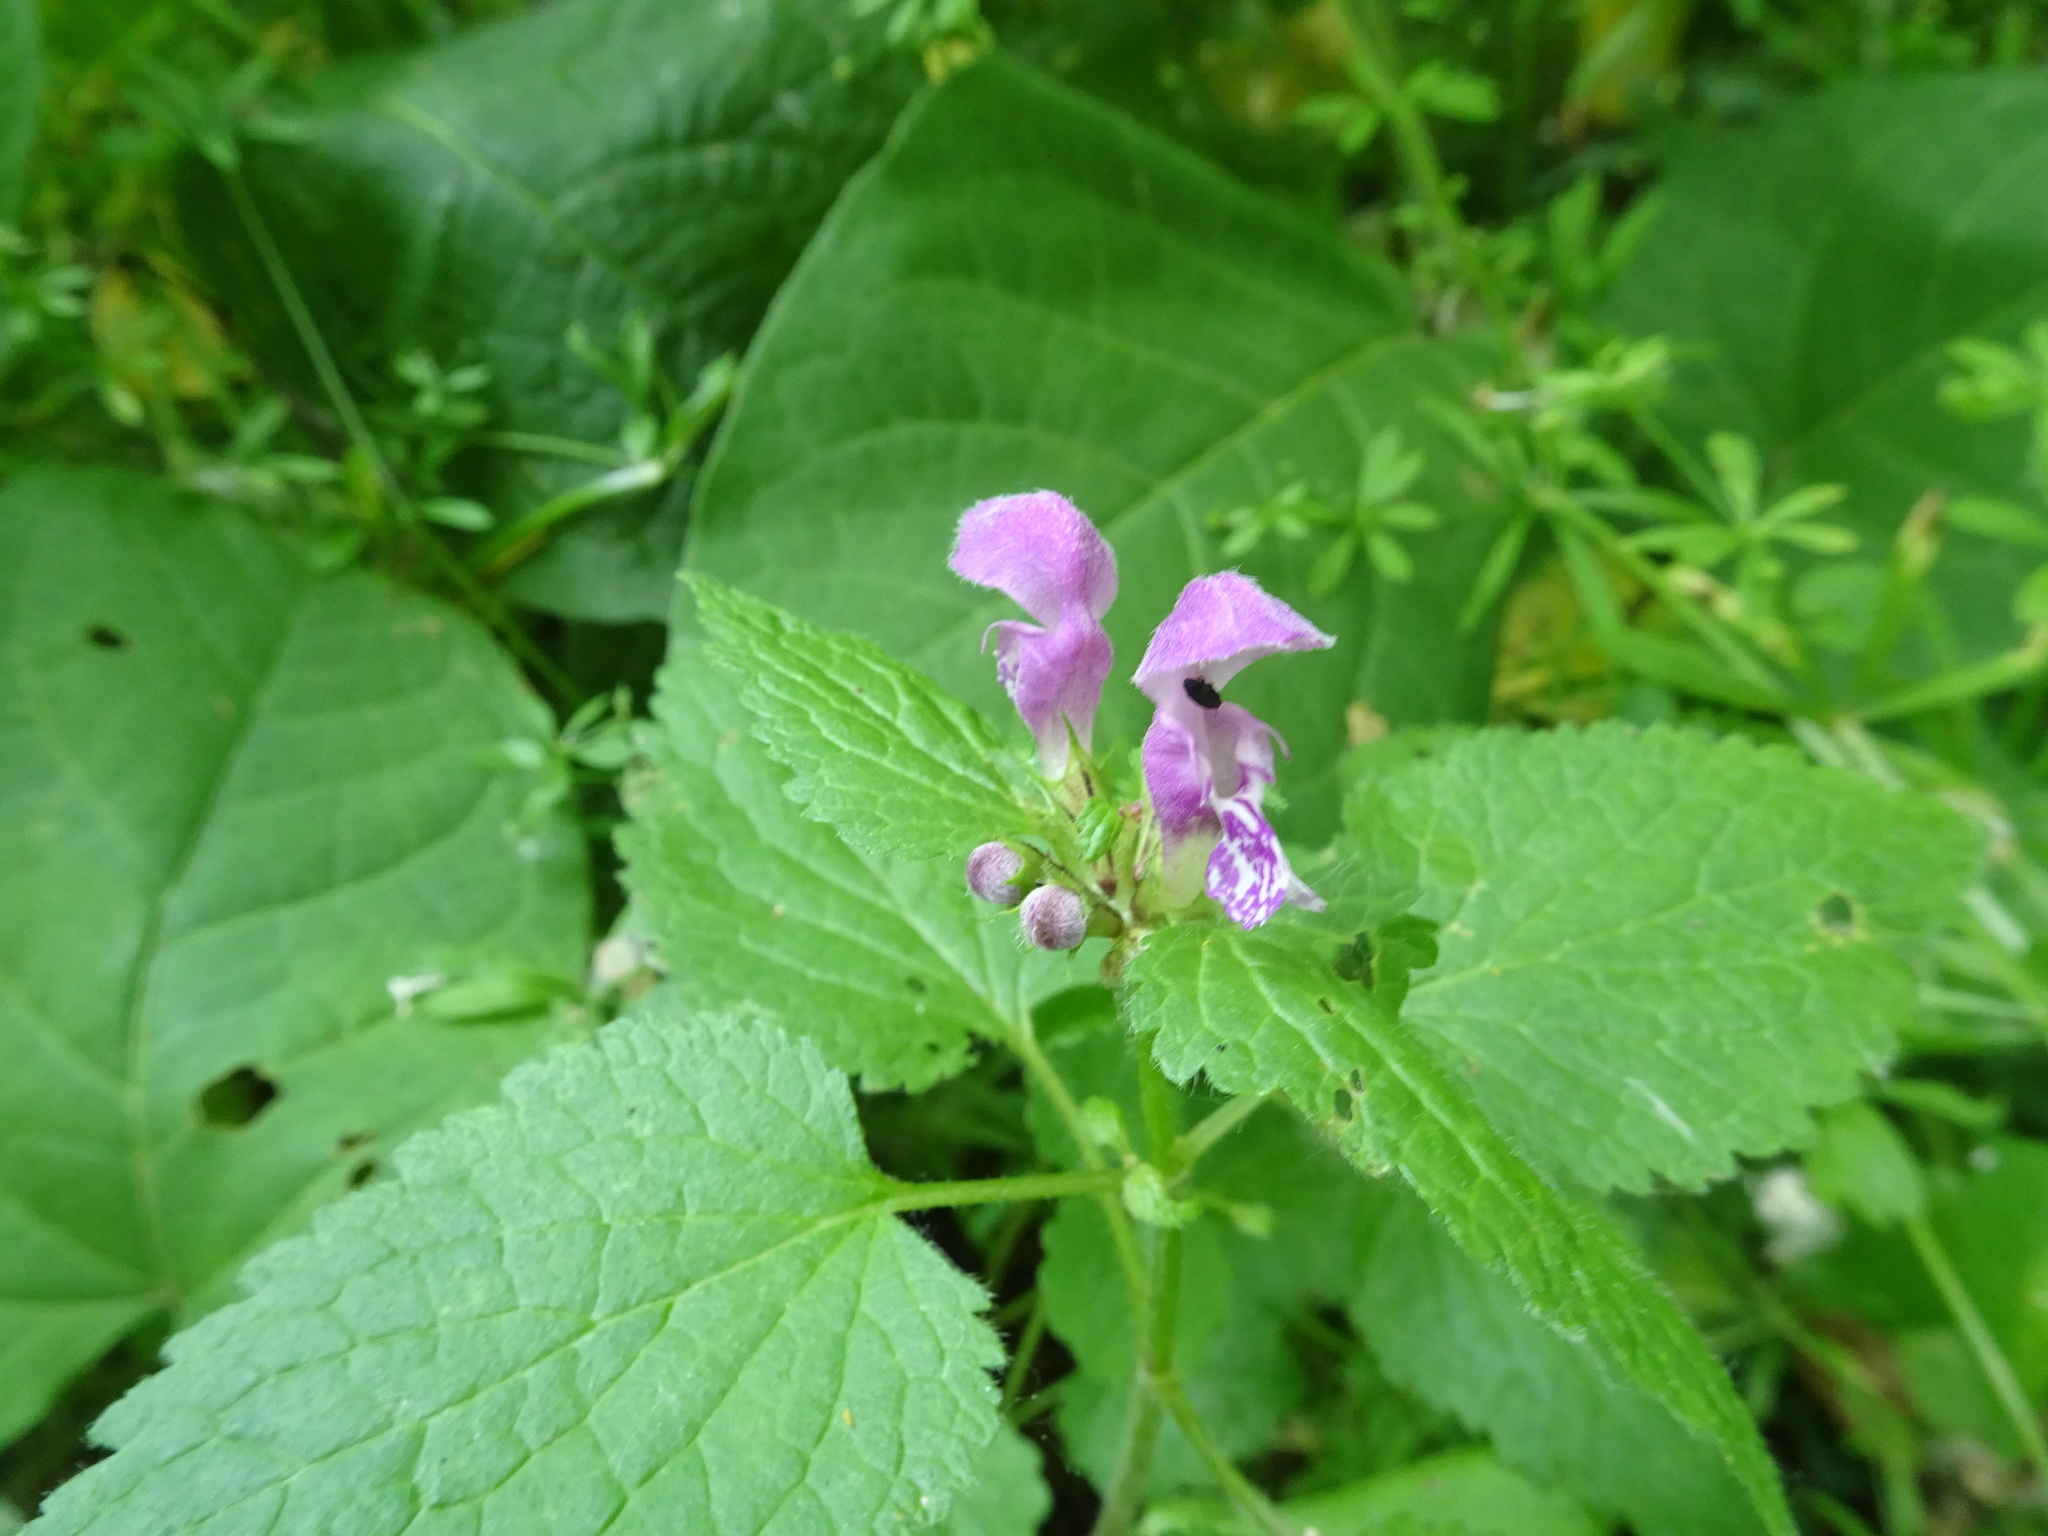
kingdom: Plantae
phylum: Tracheophyta
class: Magnoliopsida
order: Lamiales
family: Lamiaceae
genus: Lamium
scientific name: Lamium maculatum
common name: Spotted dead-nettle
